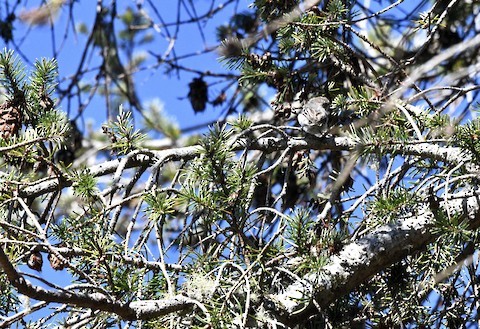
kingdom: Animalia
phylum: Chordata
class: Aves
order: Passeriformes
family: Aegithalidae
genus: Psaltriparus
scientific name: Psaltriparus minimus
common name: American bushtit
